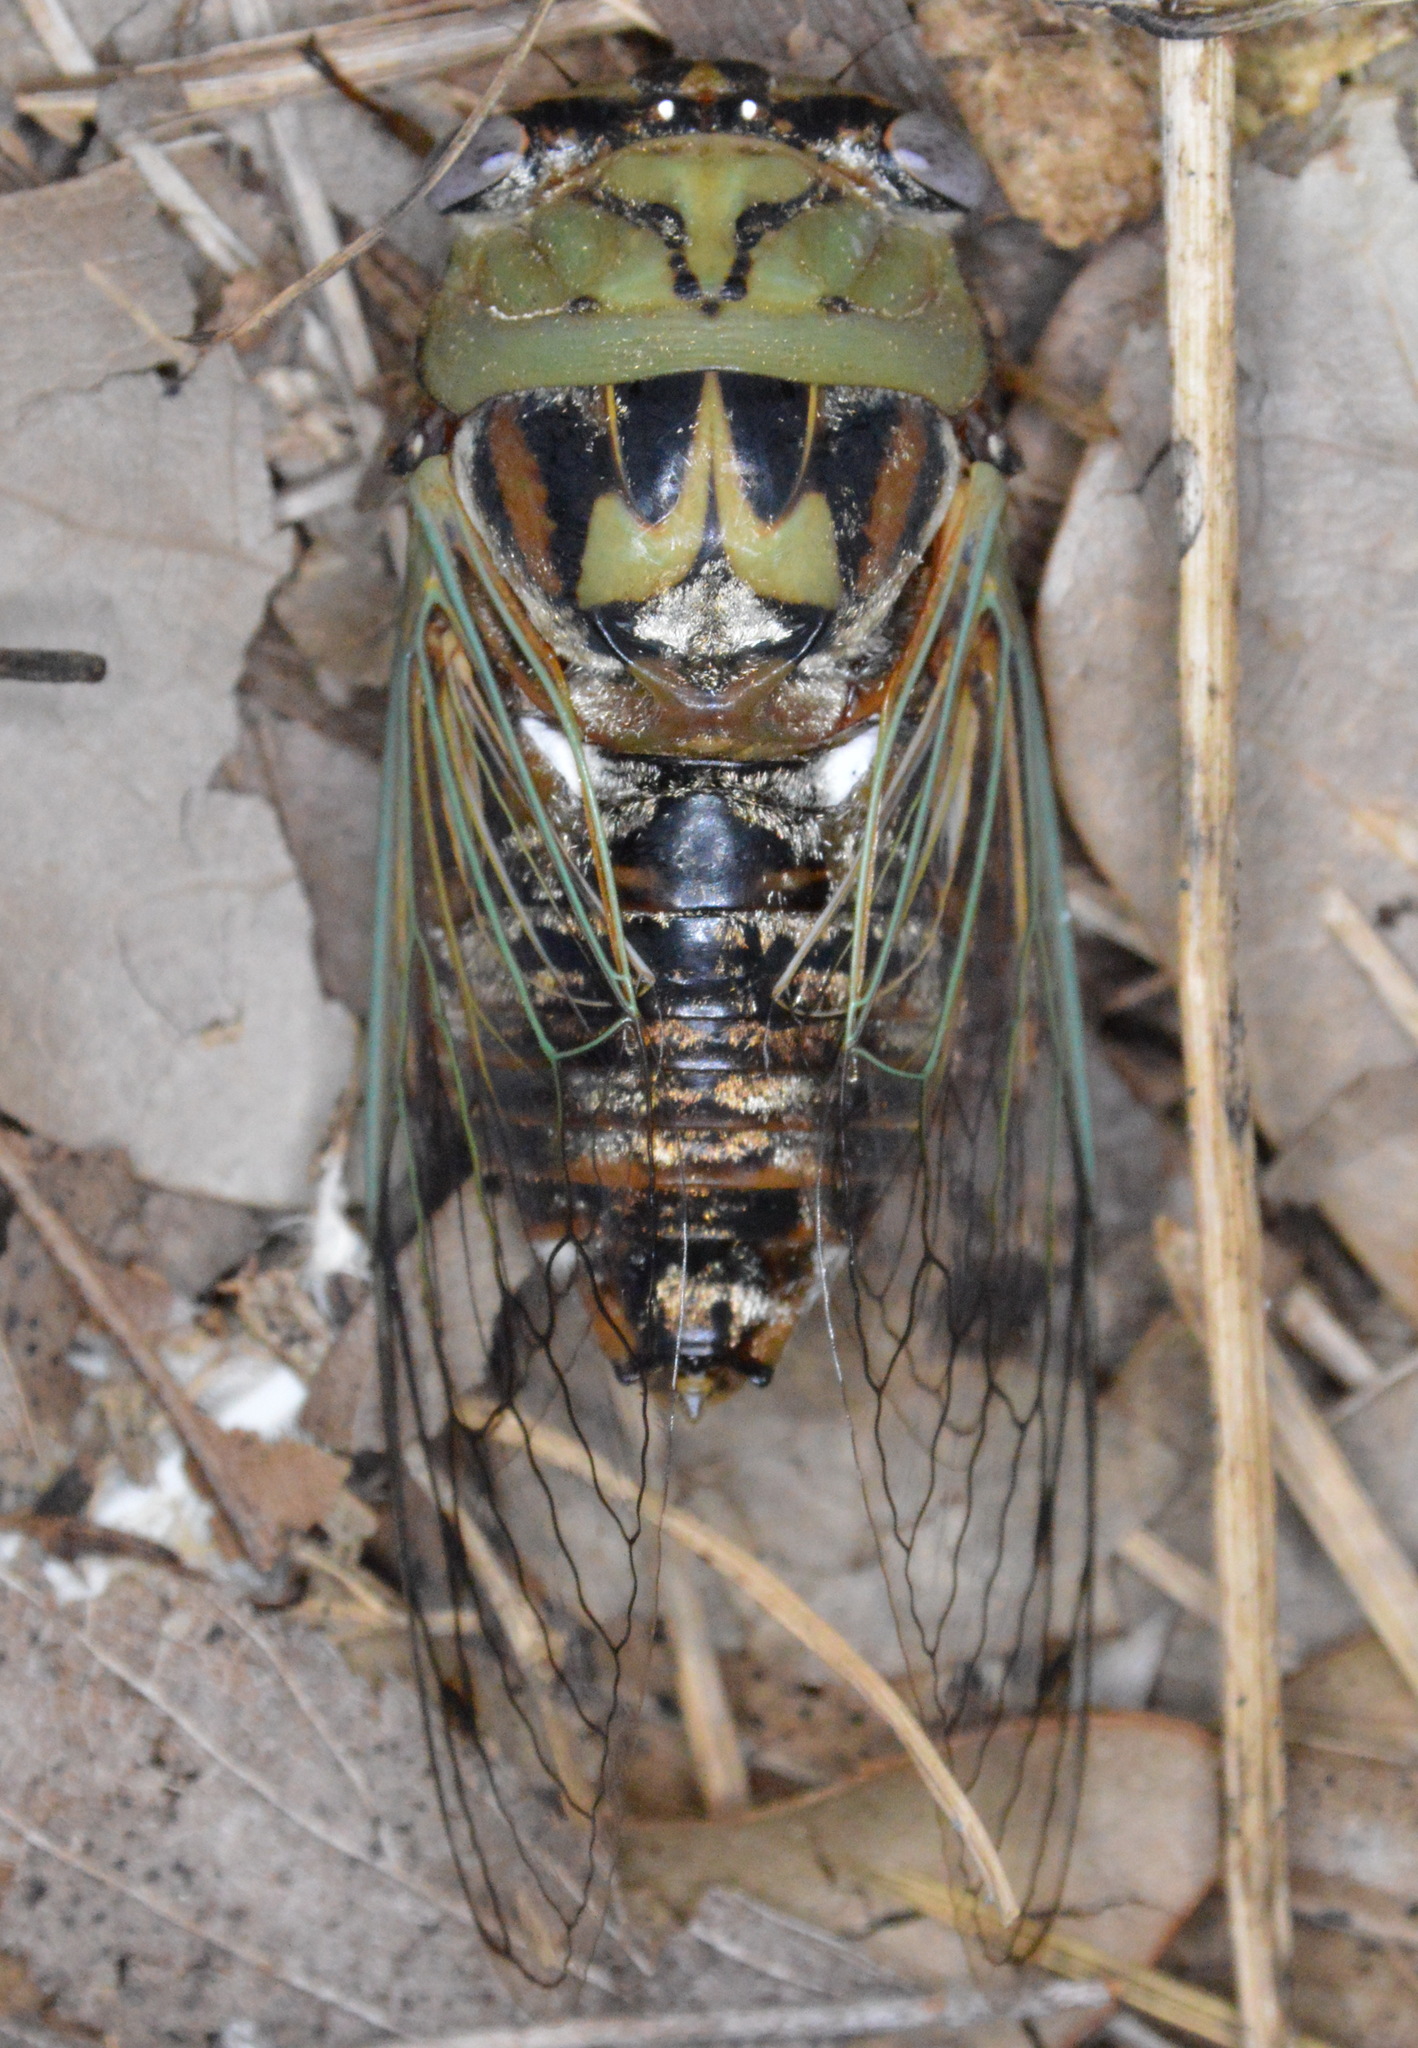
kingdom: Animalia
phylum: Arthropoda
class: Insecta
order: Hemiptera
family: Cicadidae
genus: Megatibicen
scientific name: Megatibicen resh
